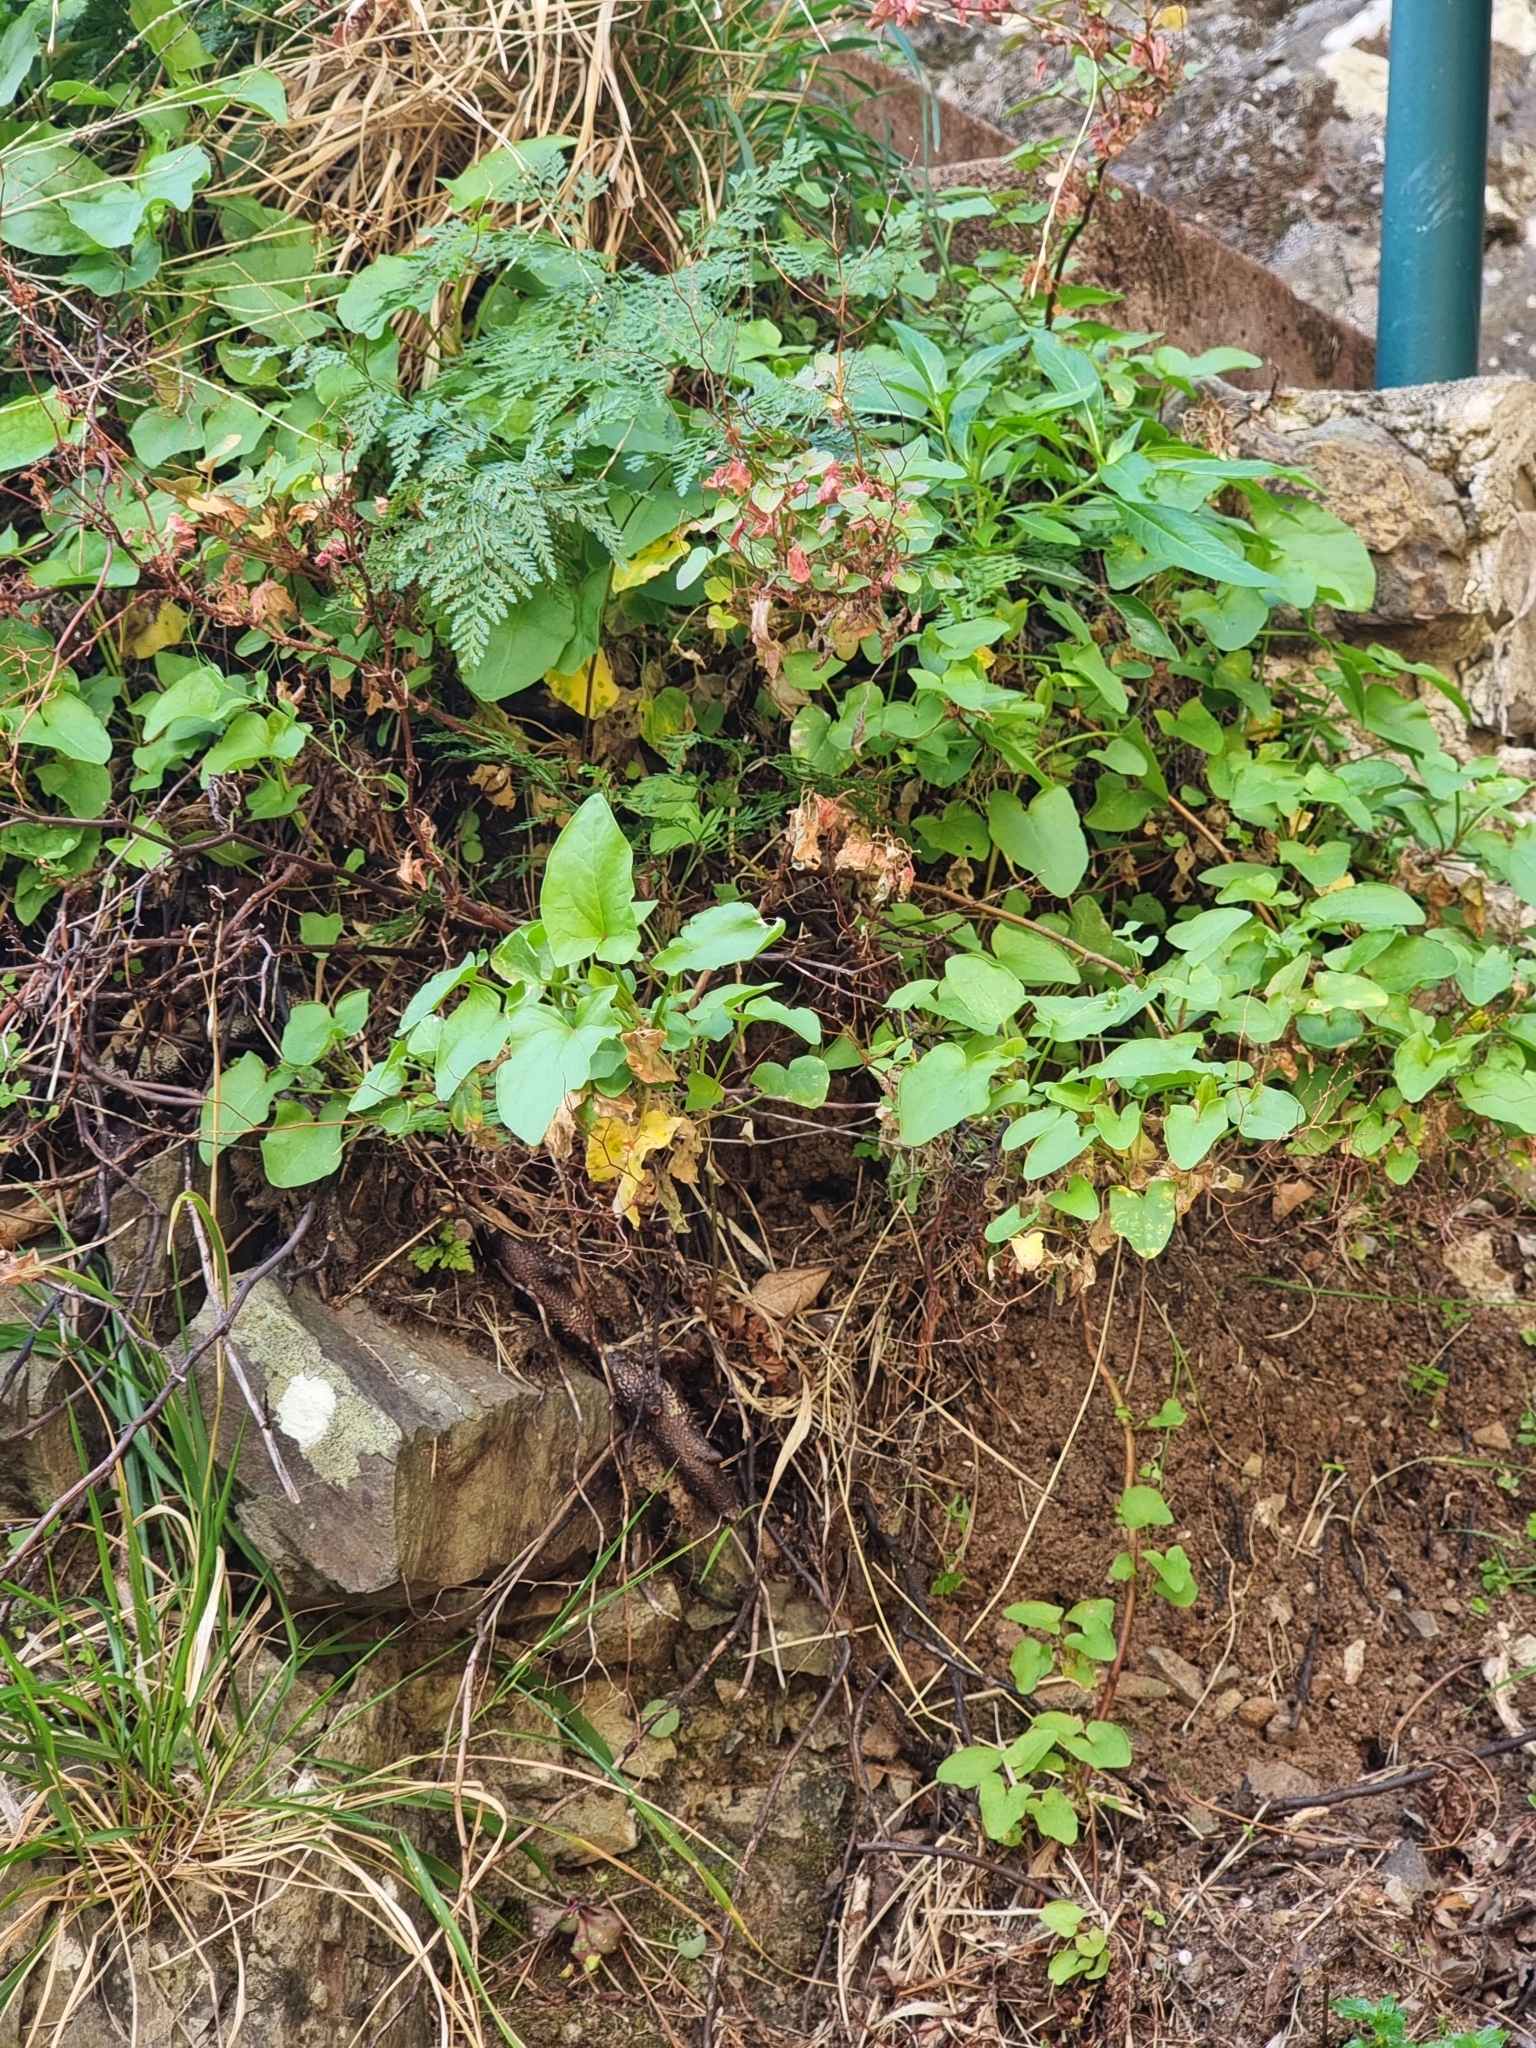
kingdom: Plantae
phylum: Tracheophyta
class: Magnoliopsida
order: Caryophyllales
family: Polygonaceae
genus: Rumex
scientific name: Rumex maderensis
